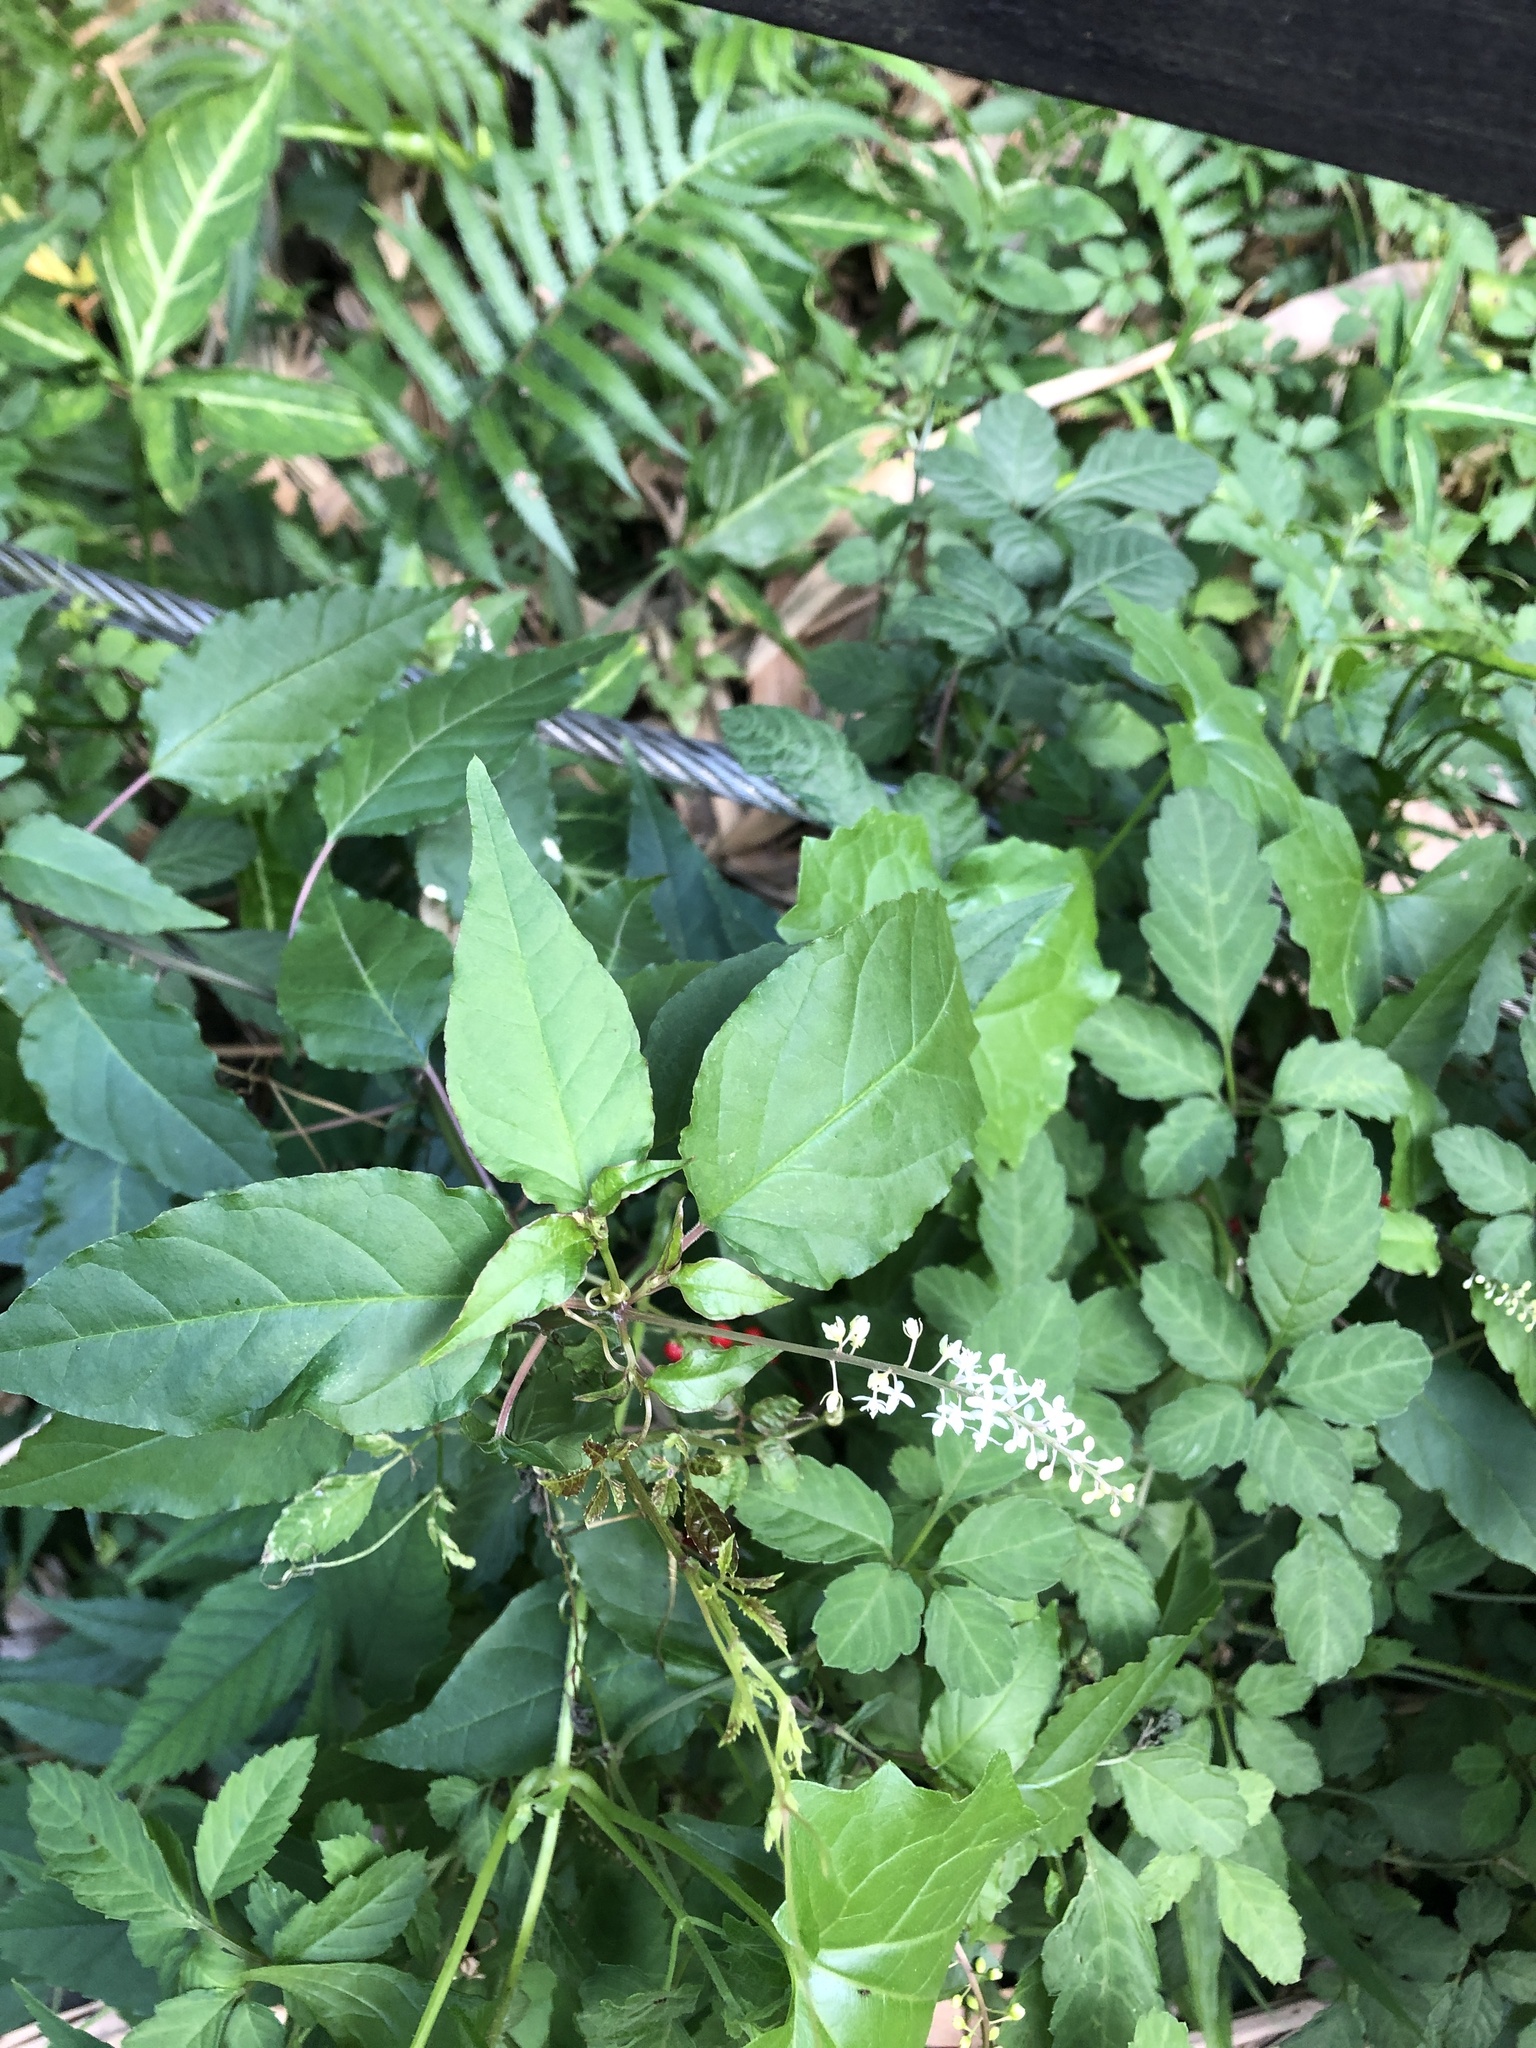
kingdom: Plantae
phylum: Tracheophyta
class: Magnoliopsida
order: Caryophyllales
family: Phytolaccaceae
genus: Rivina
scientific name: Rivina humilis
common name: Rougeplant
